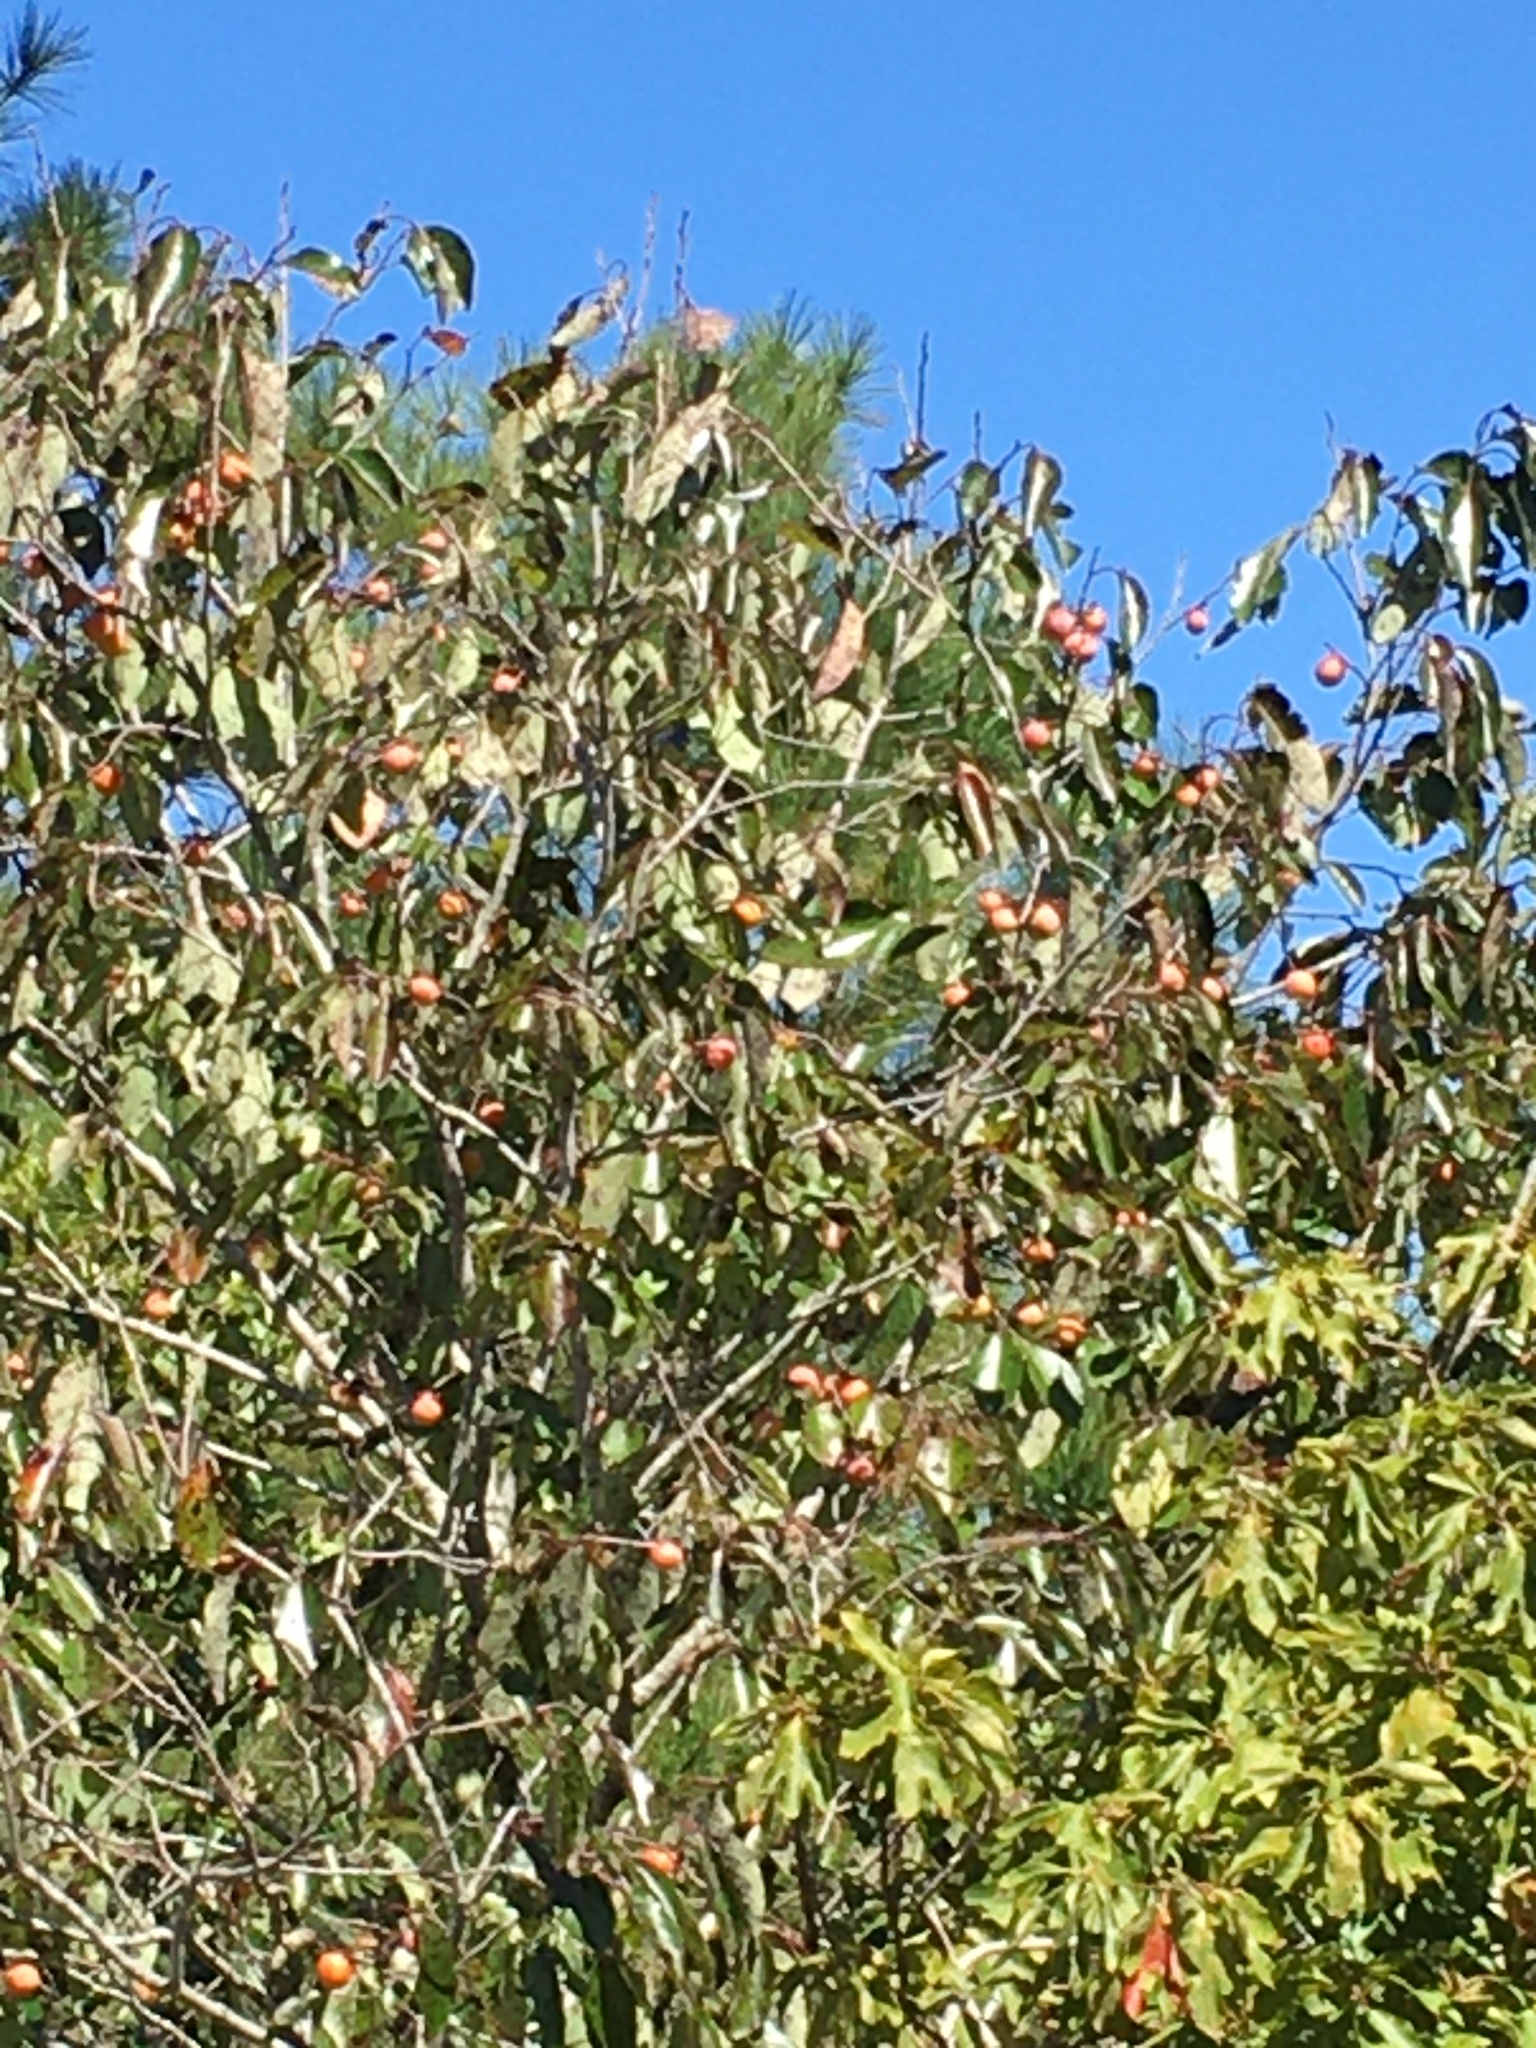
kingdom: Plantae
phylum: Tracheophyta
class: Magnoliopsida
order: Ericales
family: Ebenaceae
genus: Diospyros
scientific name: Diospyros virginiana
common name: Persimmon
